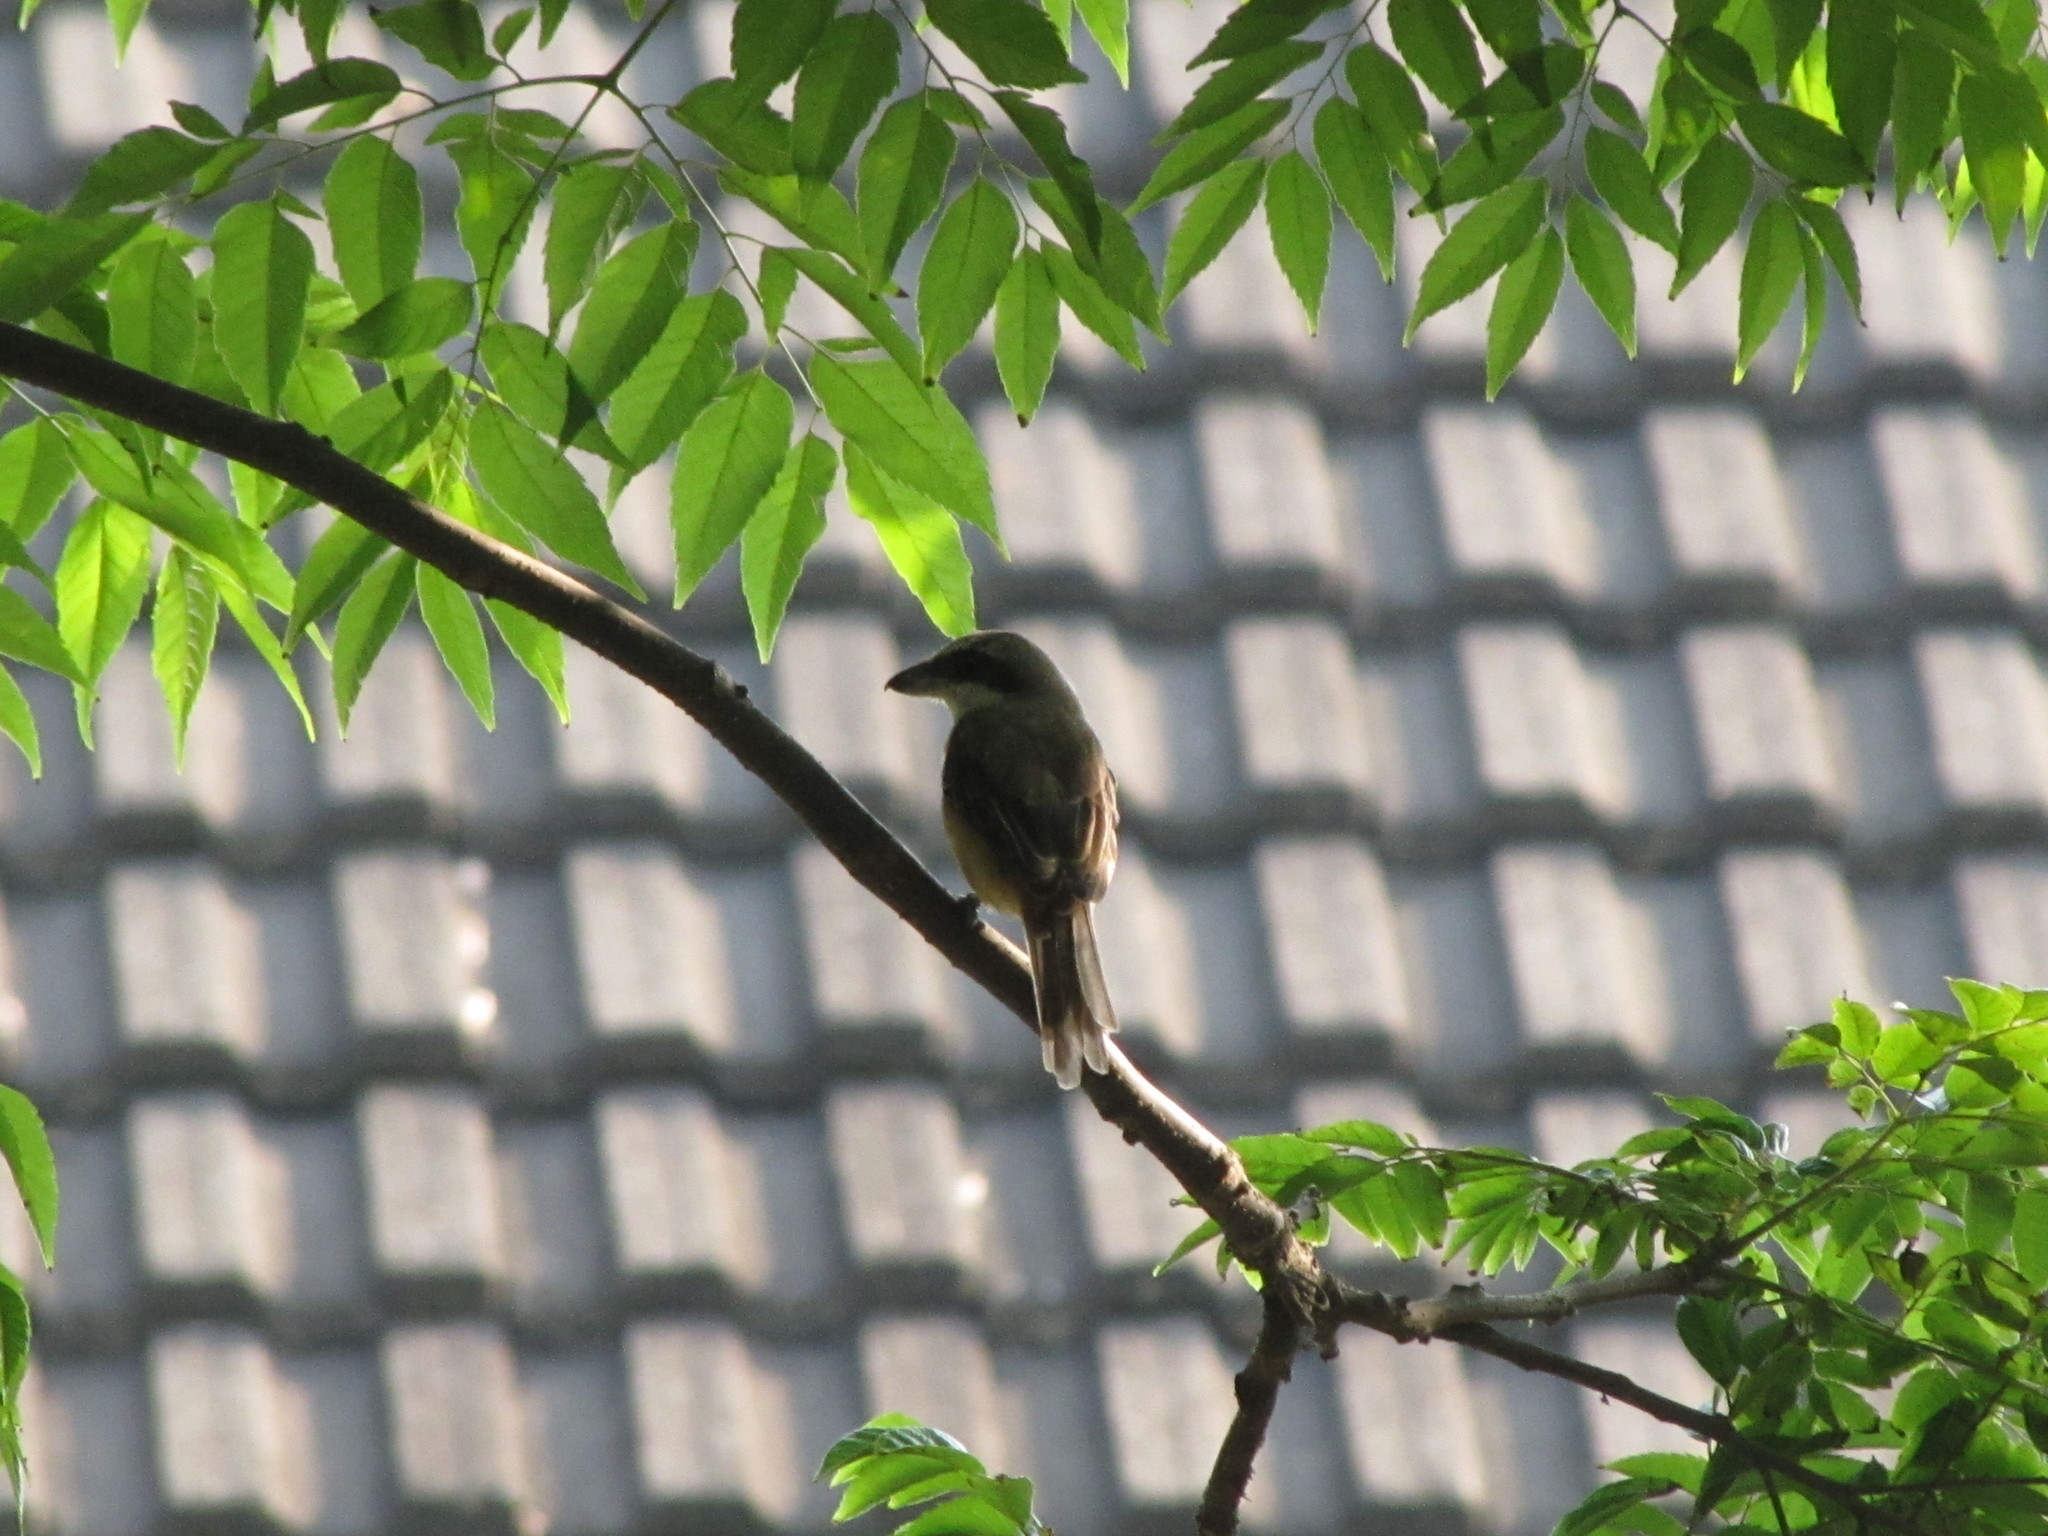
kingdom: Animalia
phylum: Chordata
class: Aves
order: Passeriformes
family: Laniidae
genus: Lanius
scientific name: Lanius cristatus
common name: Brown shrike
